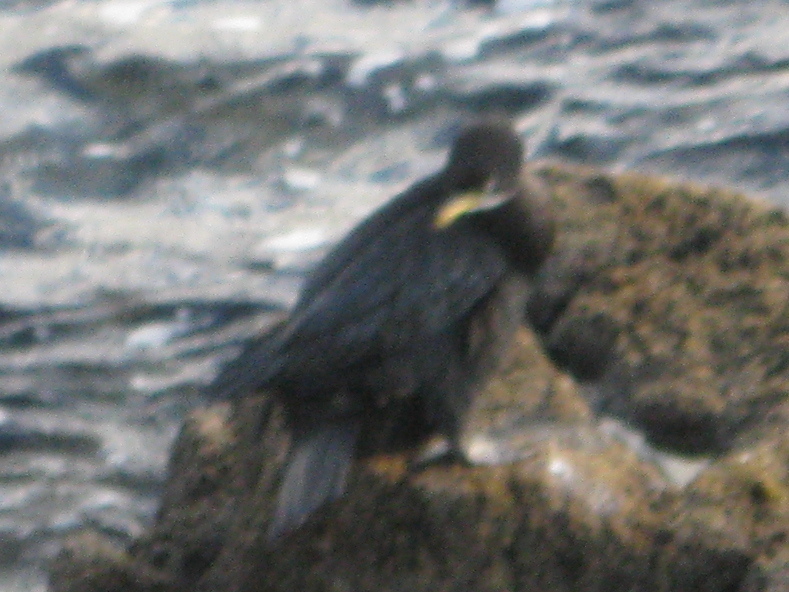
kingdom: Animalia
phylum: Chordata
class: Aves
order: Suliformes
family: Phalacrocoracidae
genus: Microcarbo
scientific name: Microcarbo melanoleucos
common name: Little pied cormorant
